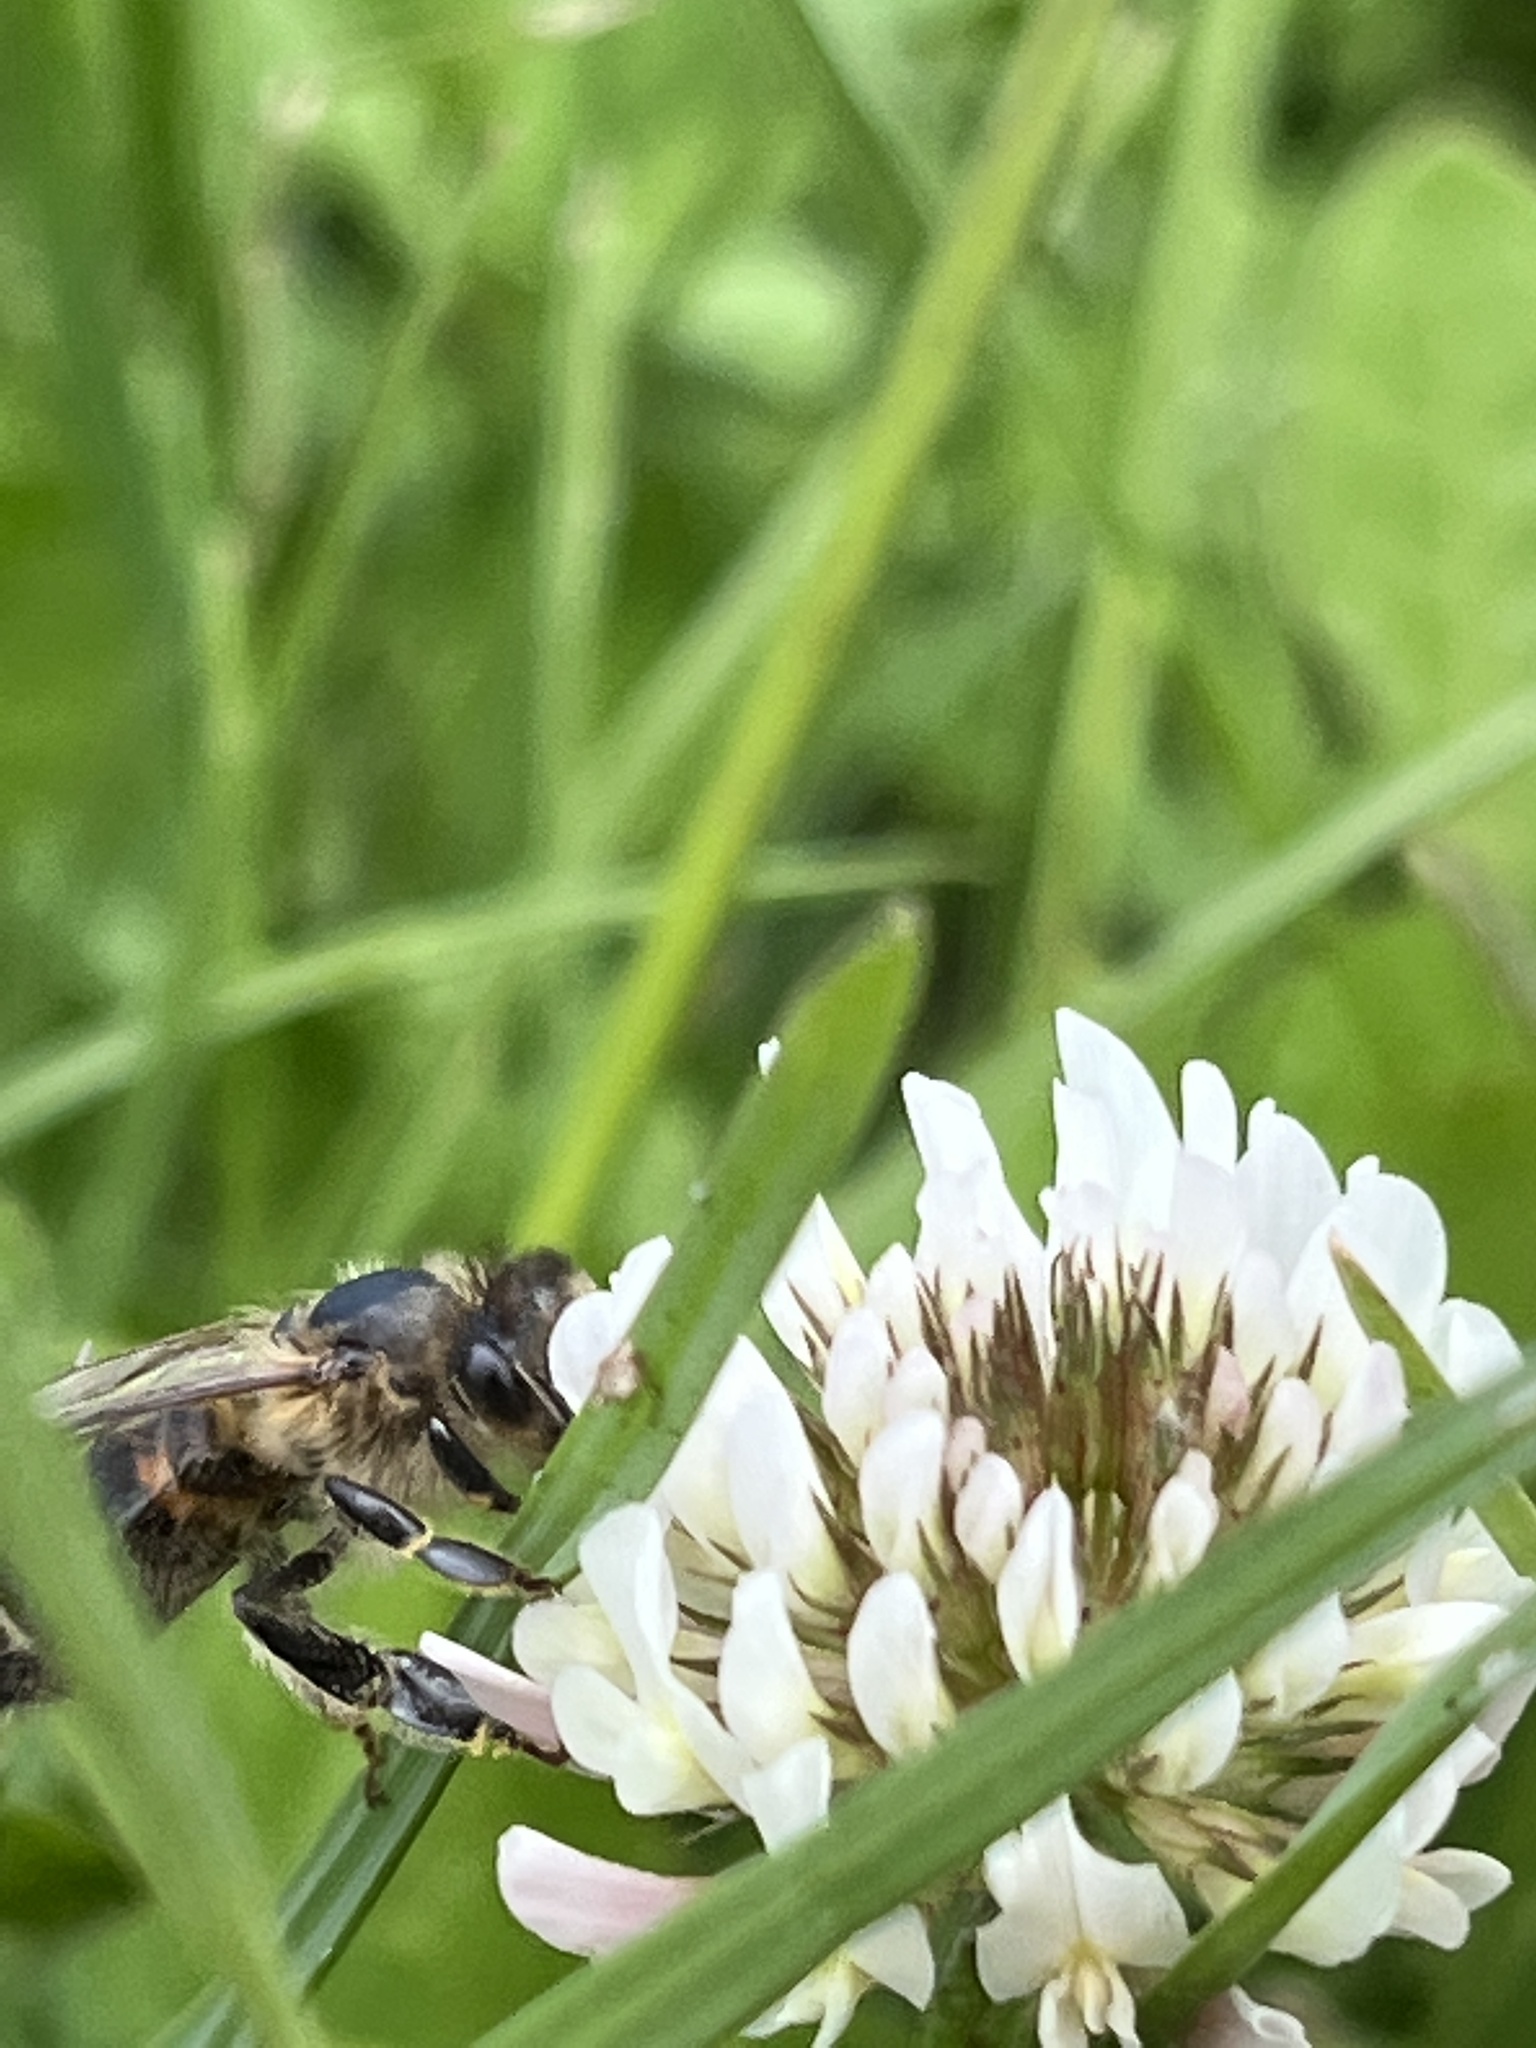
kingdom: Animalia
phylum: Arthropoda
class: Insecta
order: Hymenoptera
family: Apidae
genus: Apis
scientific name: Apis mellifera
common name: Honey bee
